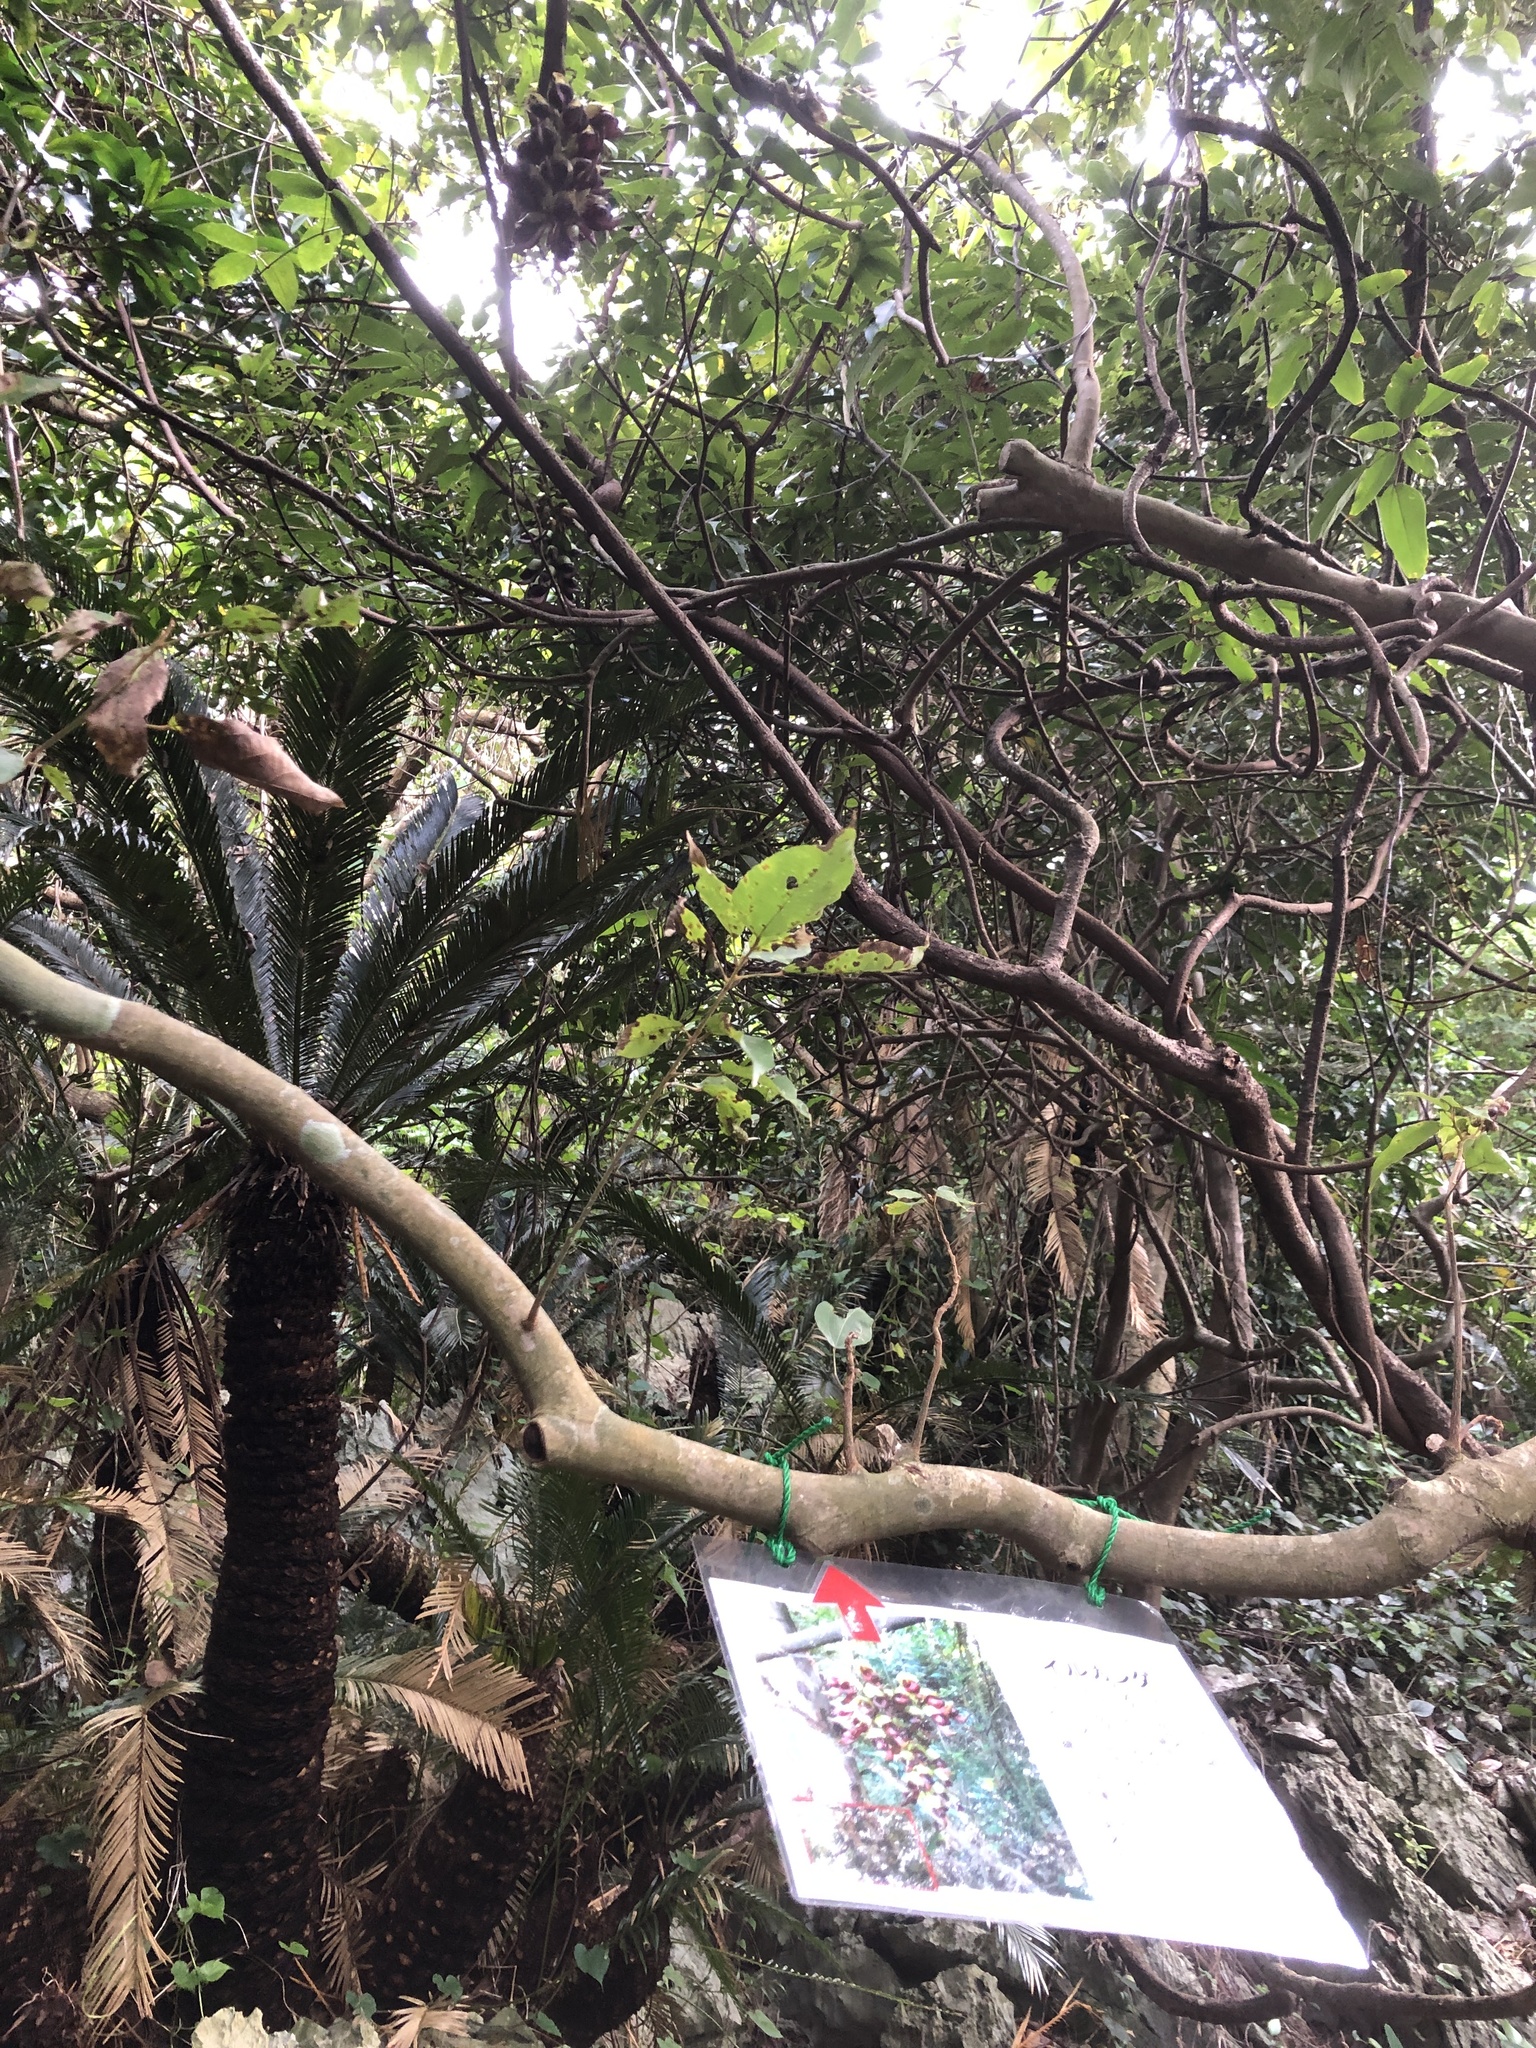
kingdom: Plantae
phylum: Tracheophyta
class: Magnoliopsida
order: Fabales
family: Fabaceae
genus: Mucuna
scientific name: Mucuna macrocarpa
